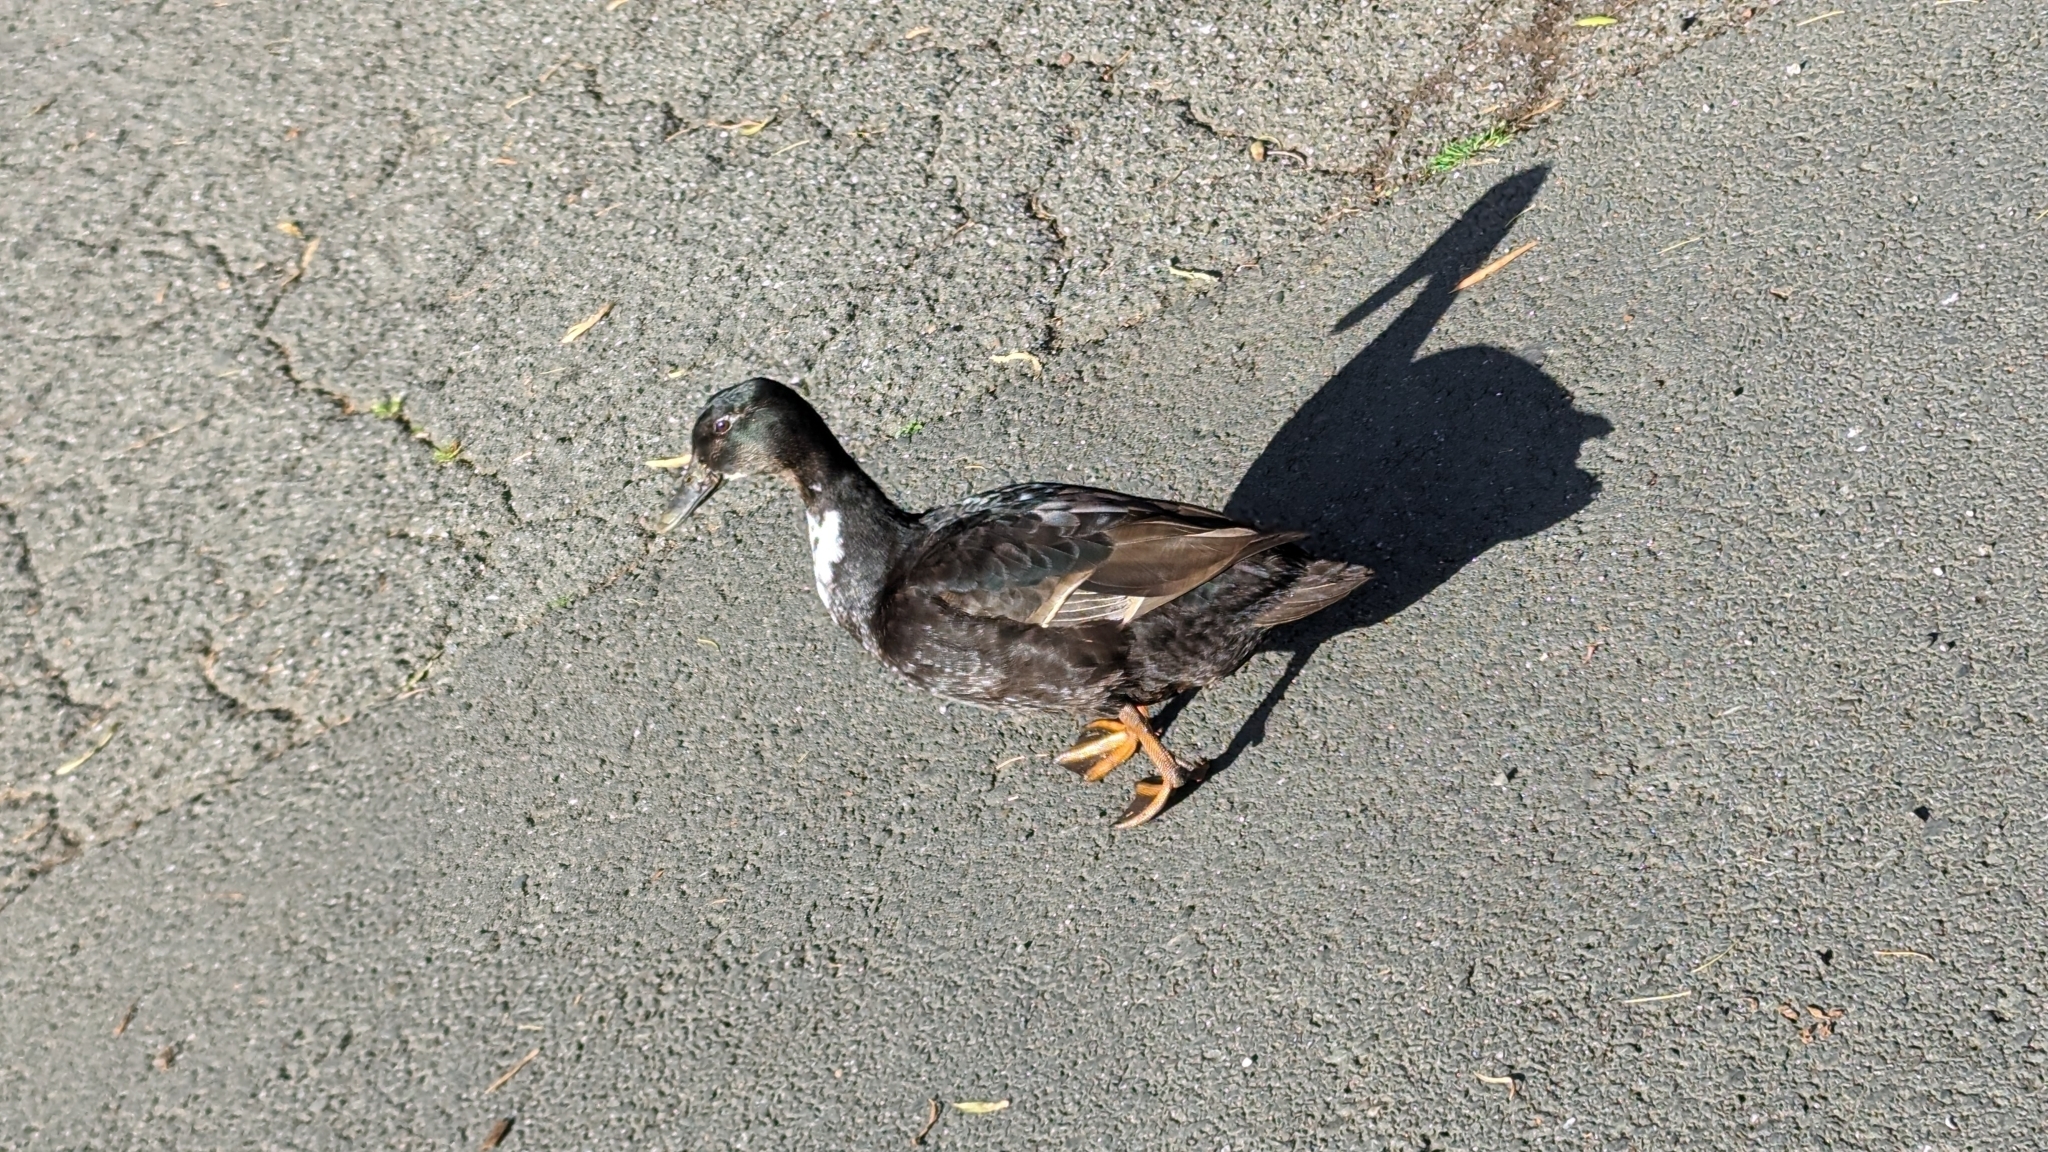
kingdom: Animalia
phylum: Chordata
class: Aves
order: Anseriformes
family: Anatidae
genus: Anas
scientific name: Anas platyrhynchos
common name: Mallard
